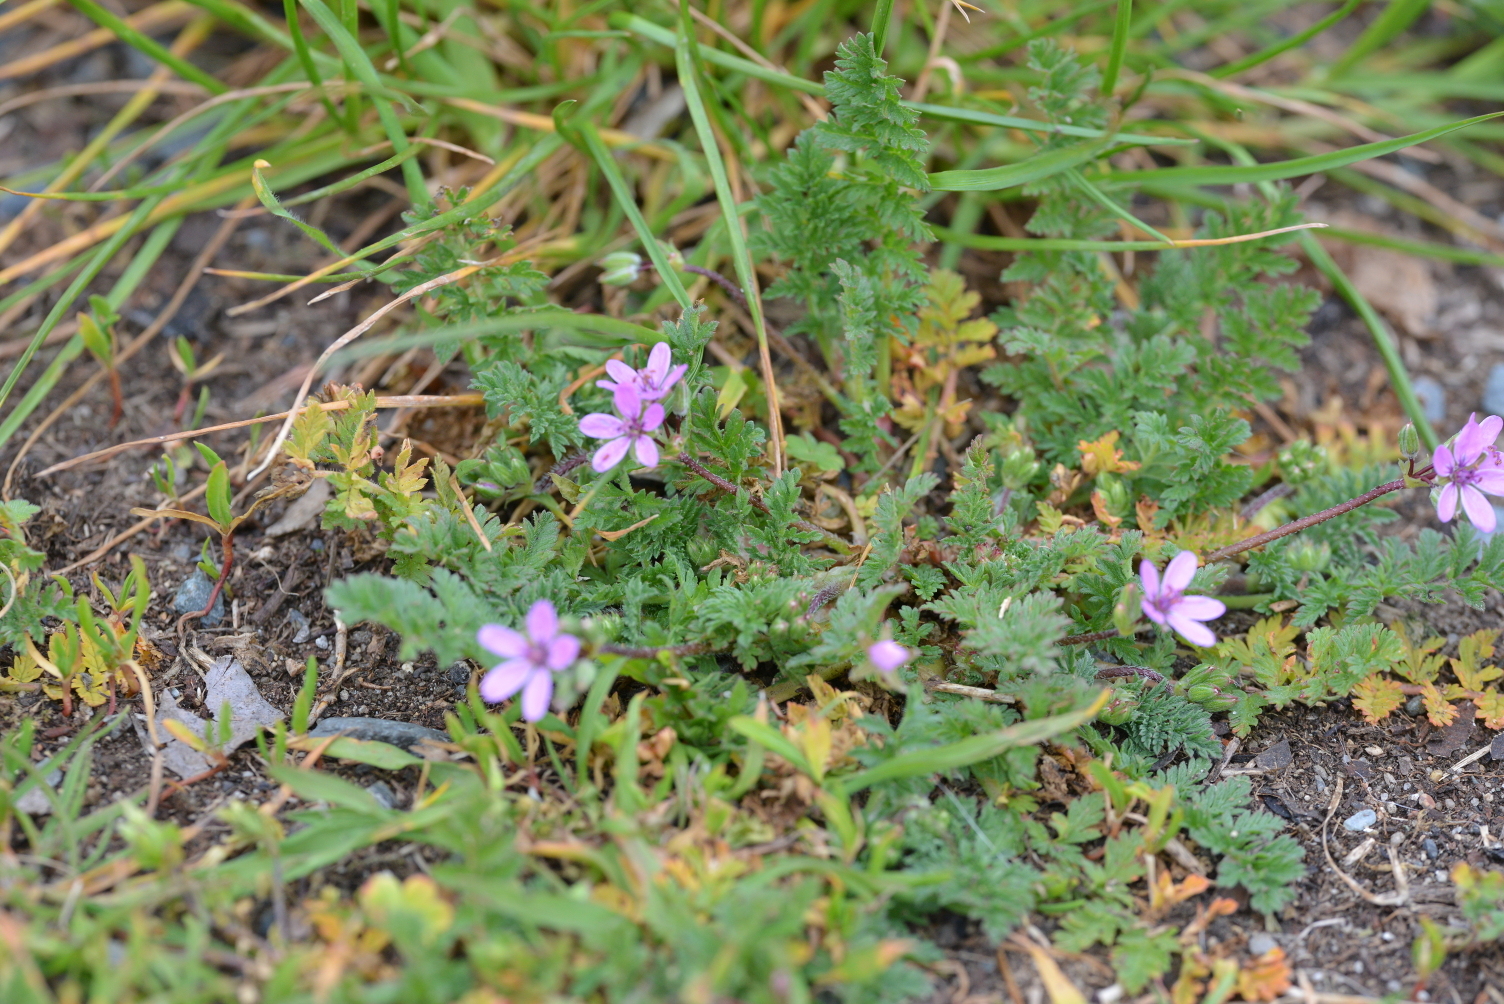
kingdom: Plantae
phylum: Tracheophyta
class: Magnoliopsida
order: Geraniales
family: Geraniaceae
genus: Erodium
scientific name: Erodium cicutarium
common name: Common stork's-bill
